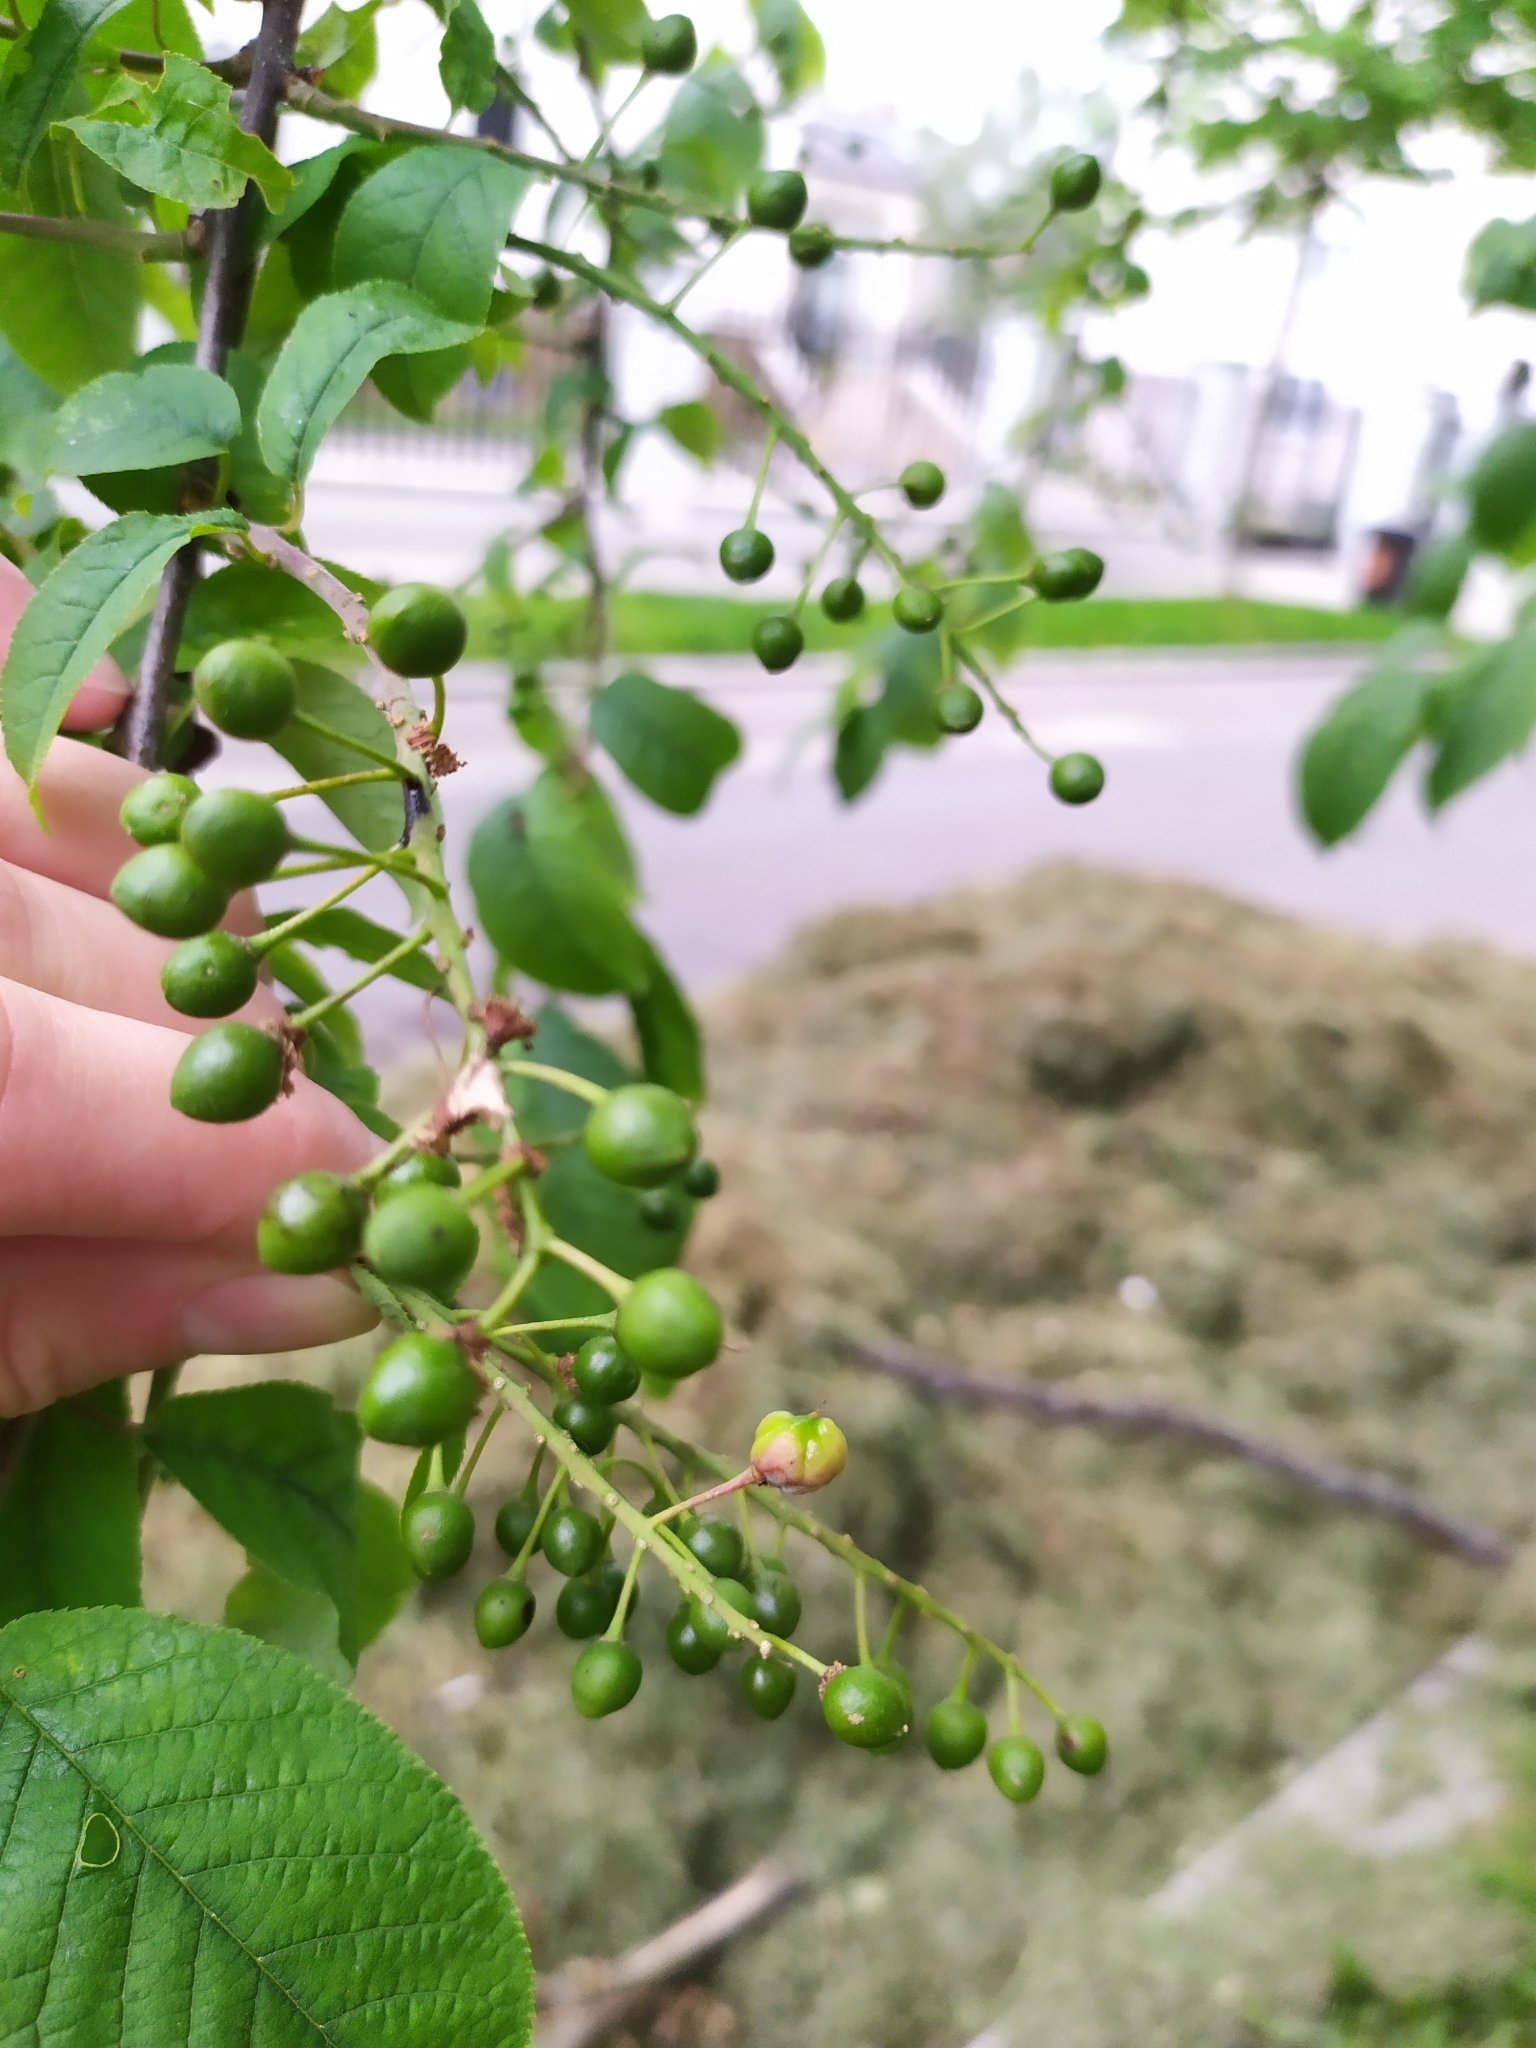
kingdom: Fungi
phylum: Ascomycota
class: Taphrinomycetes
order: Taphrinales
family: Taphrinaceae
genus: Taphrina
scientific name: Taphrina padi
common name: Bird cherry pocket
